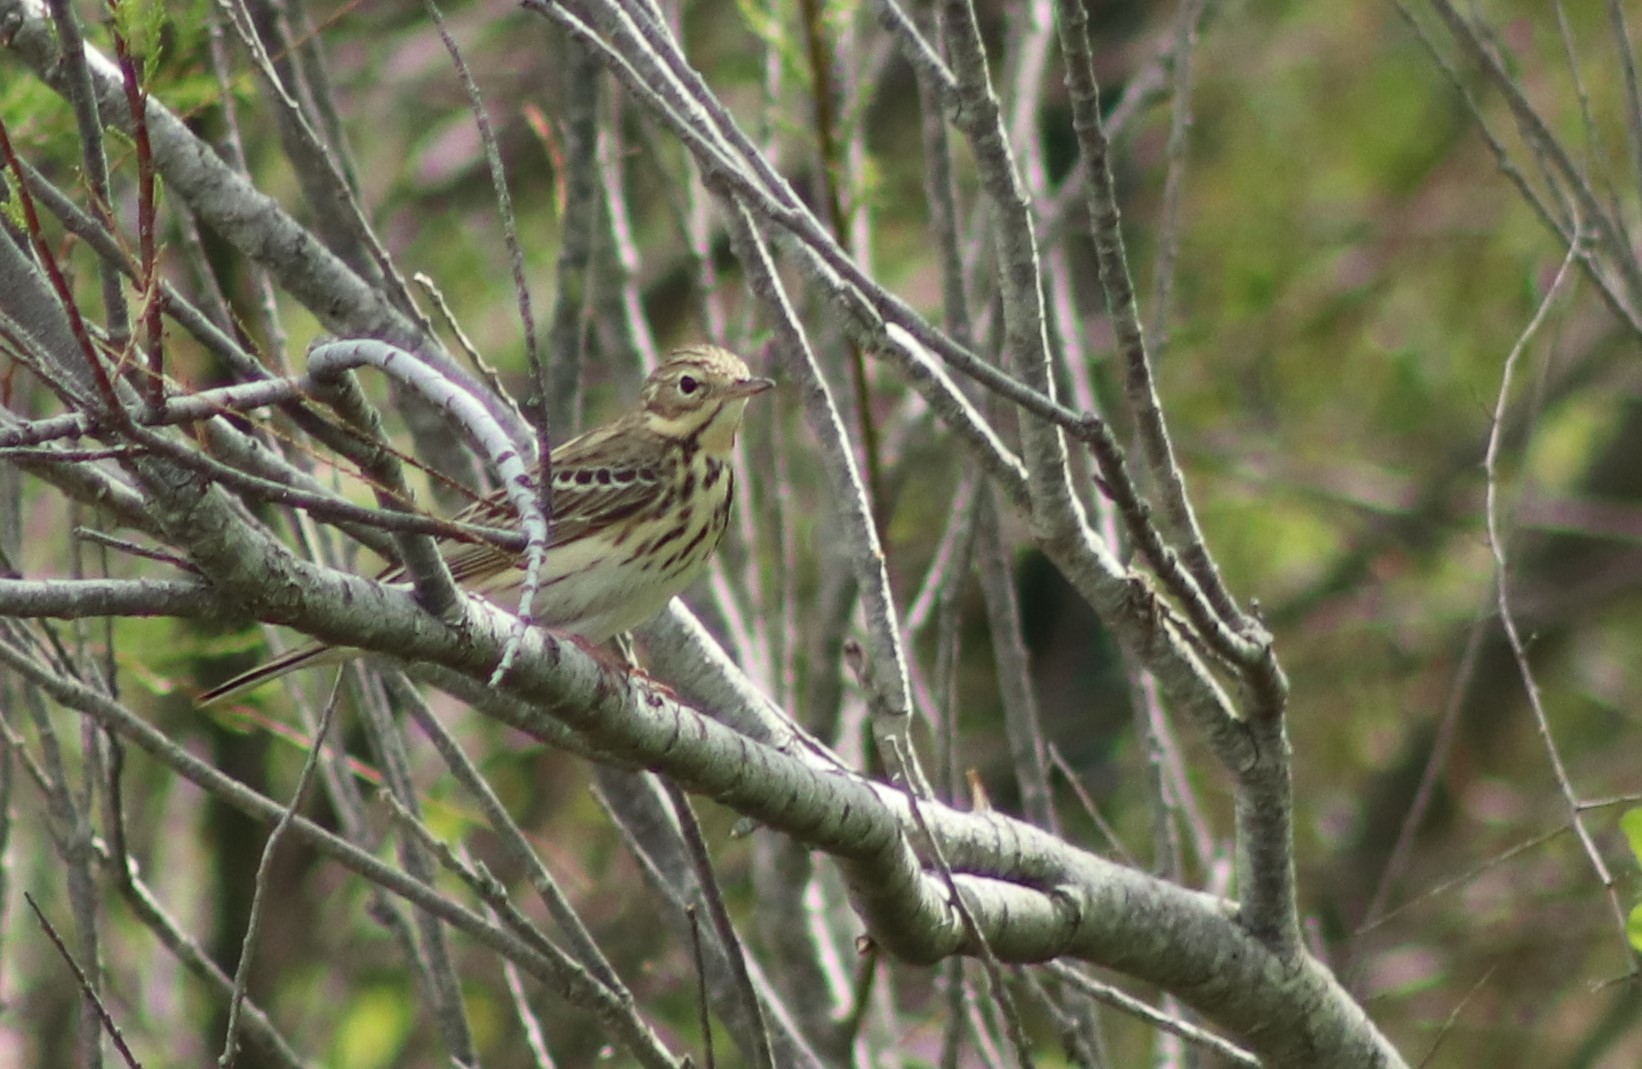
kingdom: Animalia
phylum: Chordata
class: Aves
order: Passeriformes
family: Motacillidae
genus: Anthus
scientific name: Anthus trivialis
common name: Tree pipit
